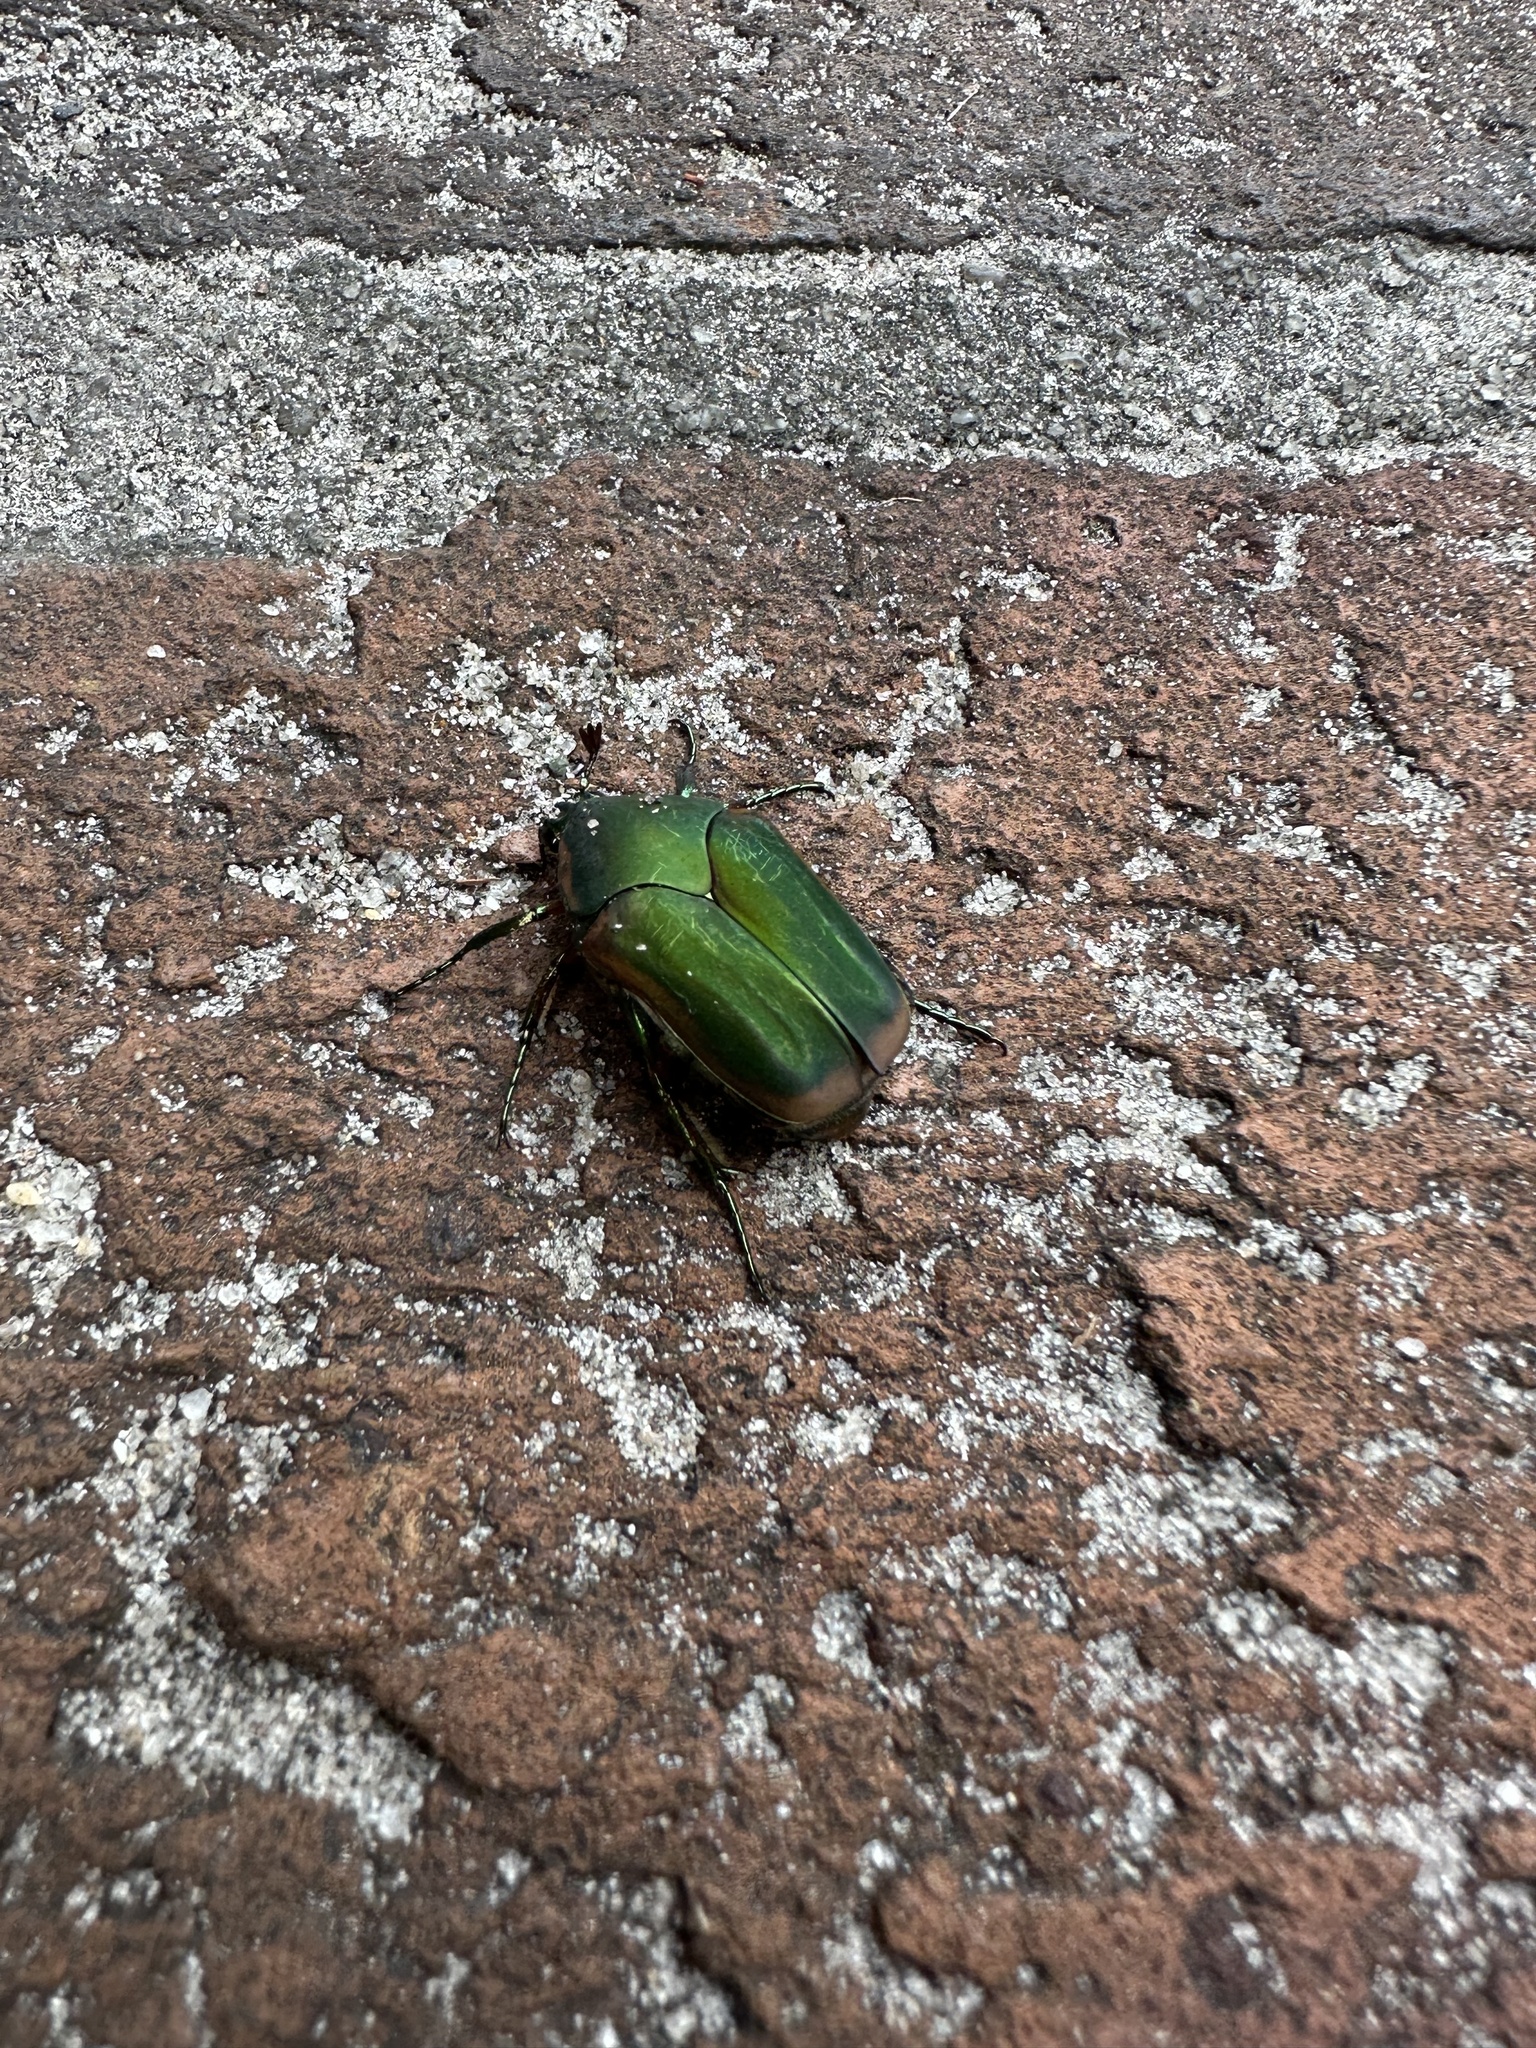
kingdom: Animalia
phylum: Arthropoda
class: Insecta
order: Coleoptera
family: Scarabaeidae
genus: Cotinis
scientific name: Cotinis nitida
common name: Common green june beetle
